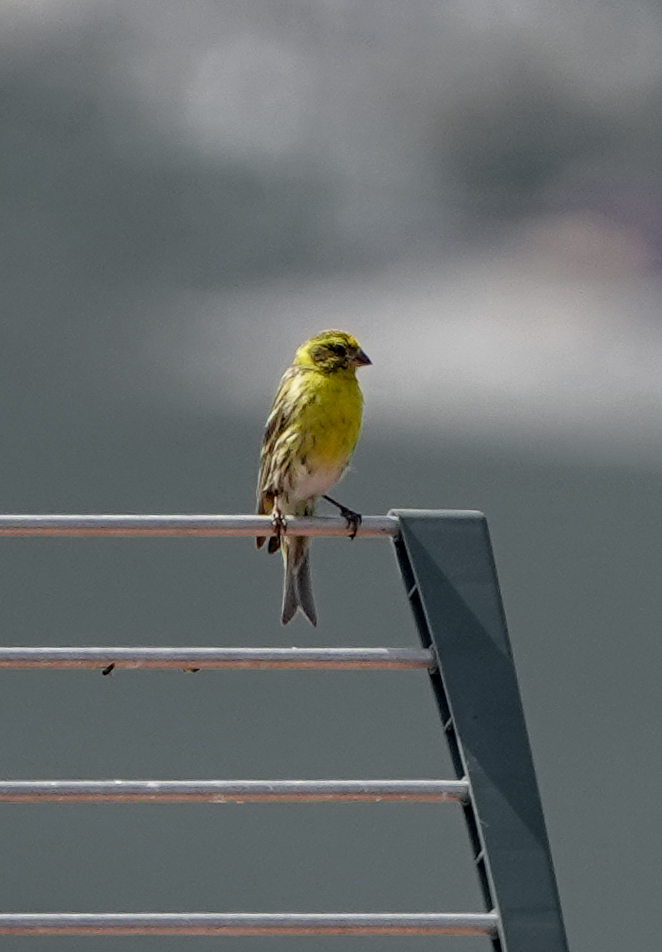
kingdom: Animalia
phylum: Chordata
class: Aves
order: Passeriformes
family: Fringillidae
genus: Serinus
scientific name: Serinus serinus
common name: European serin
